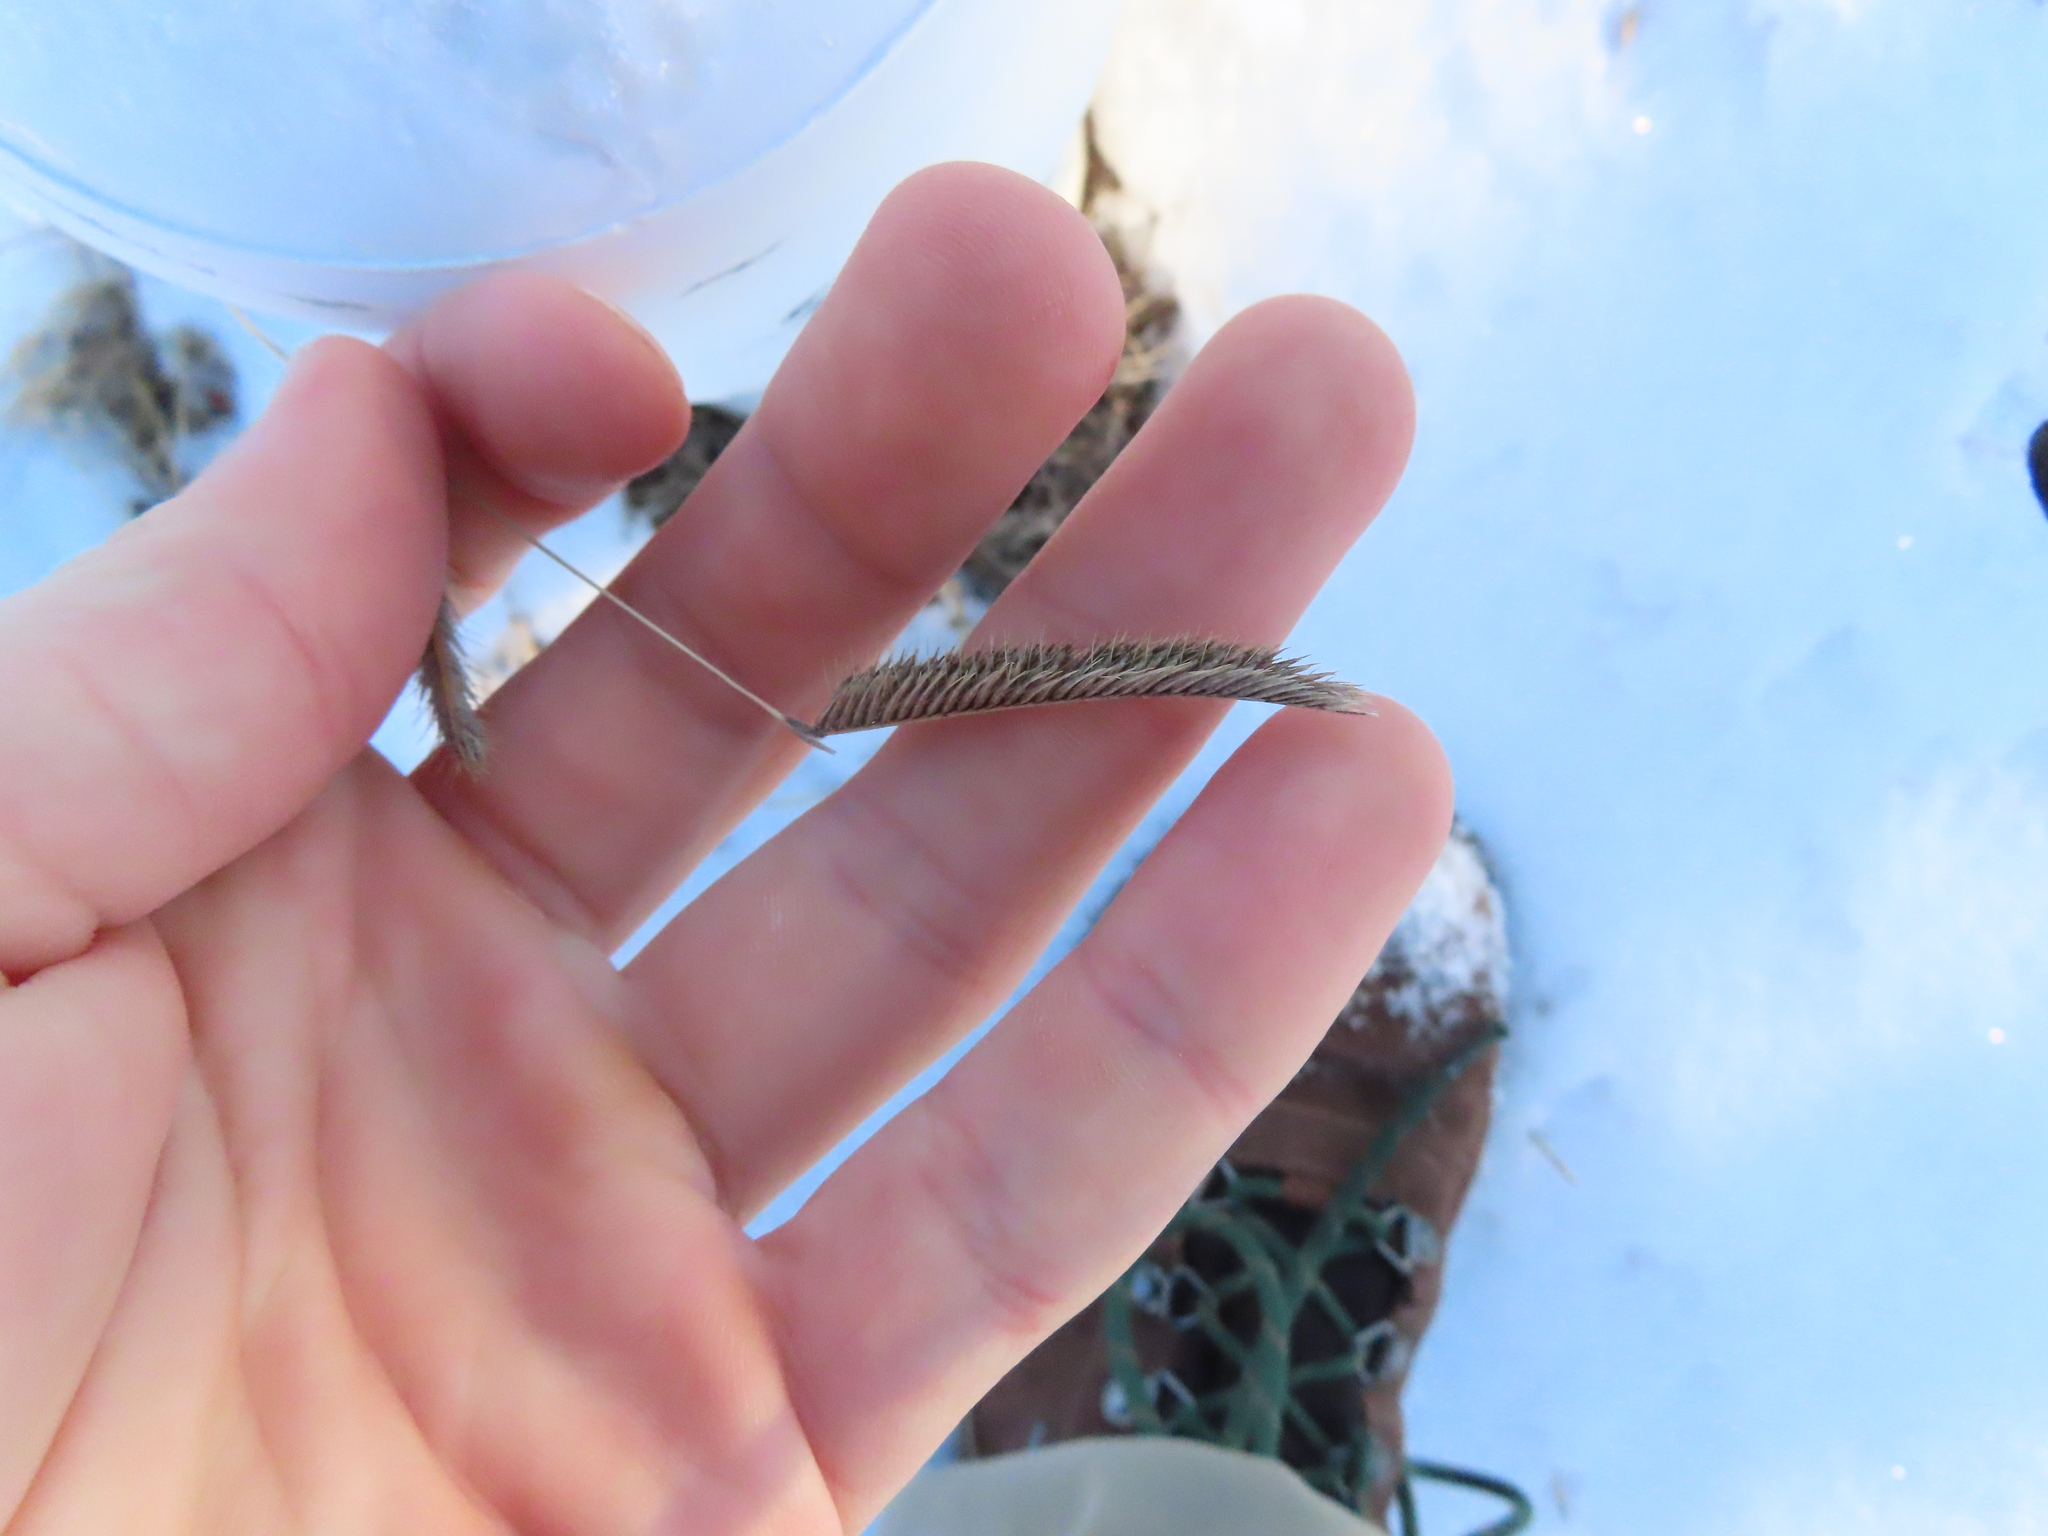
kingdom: Plantae
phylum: Tracheophyta
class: Liliopsida
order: Poales
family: Poaceae
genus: Bouteloua
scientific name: Bouteloua gracilis
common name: Blue grama
